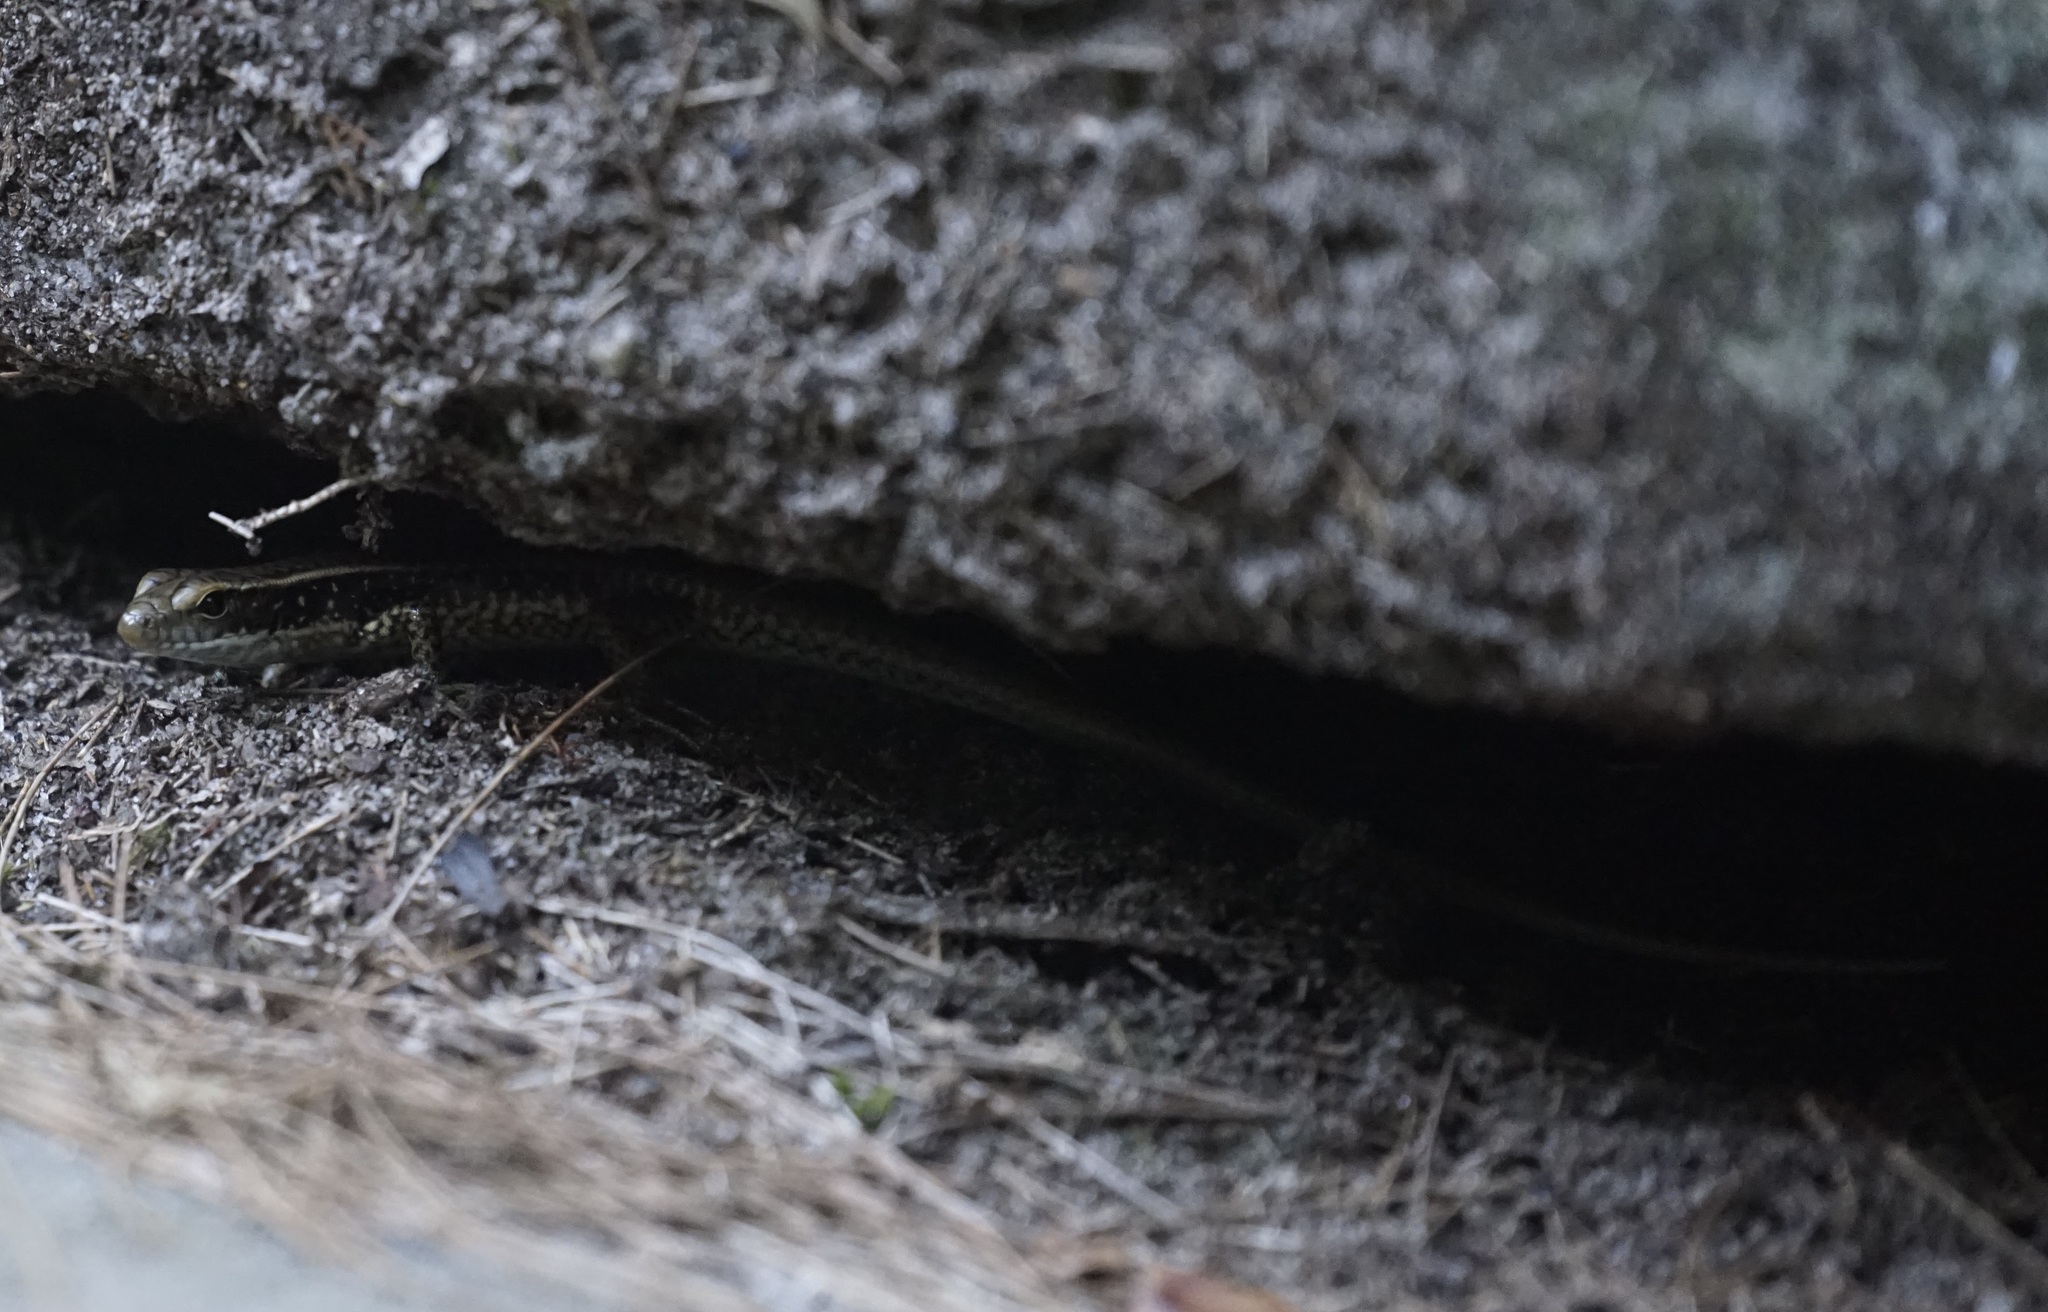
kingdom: Animalia
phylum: Chordata
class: Squamata
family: Scincidae
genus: Eulamprus
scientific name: Eulamprus quoyii
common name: Eastern water skink
